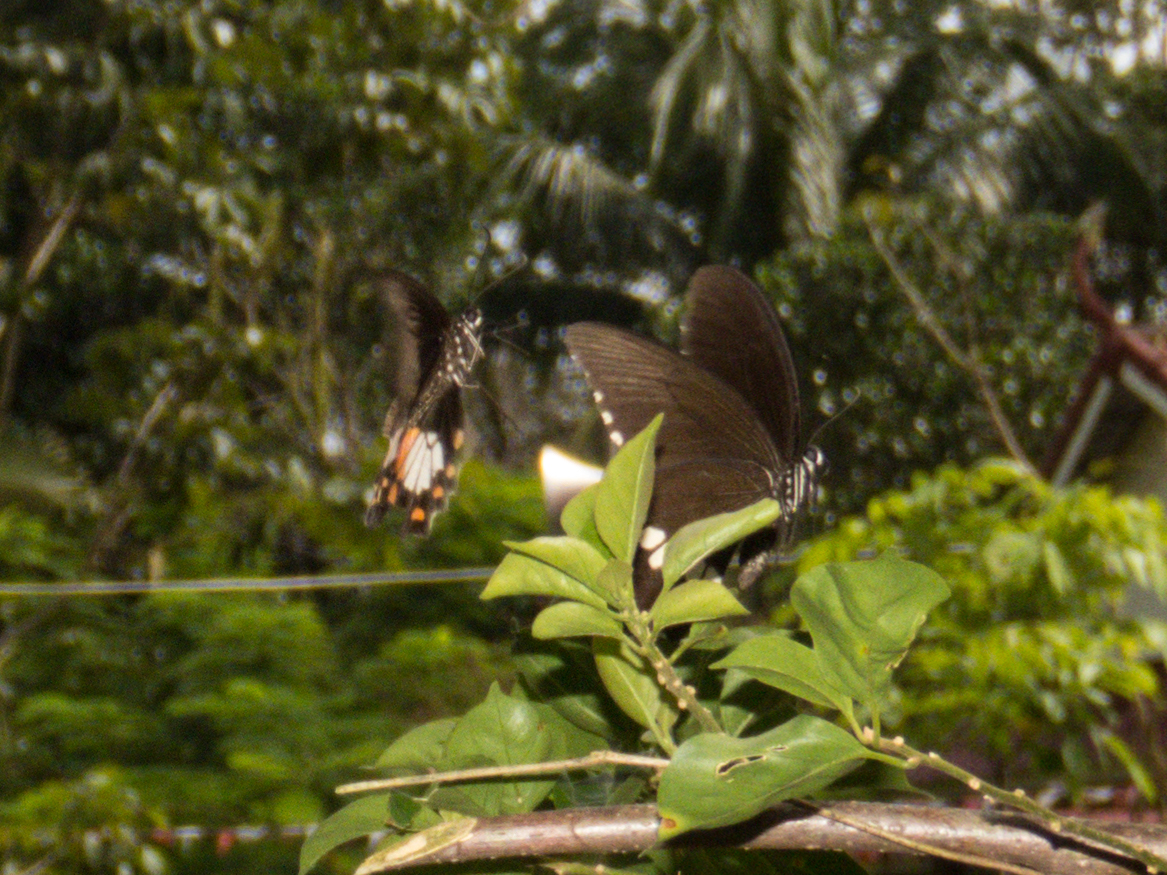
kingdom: Animalia
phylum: Arthropoda
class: Insecta
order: Lepidoptera
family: Papilionidae
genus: Papilio
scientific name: Papilio polytes
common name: Common mormon
